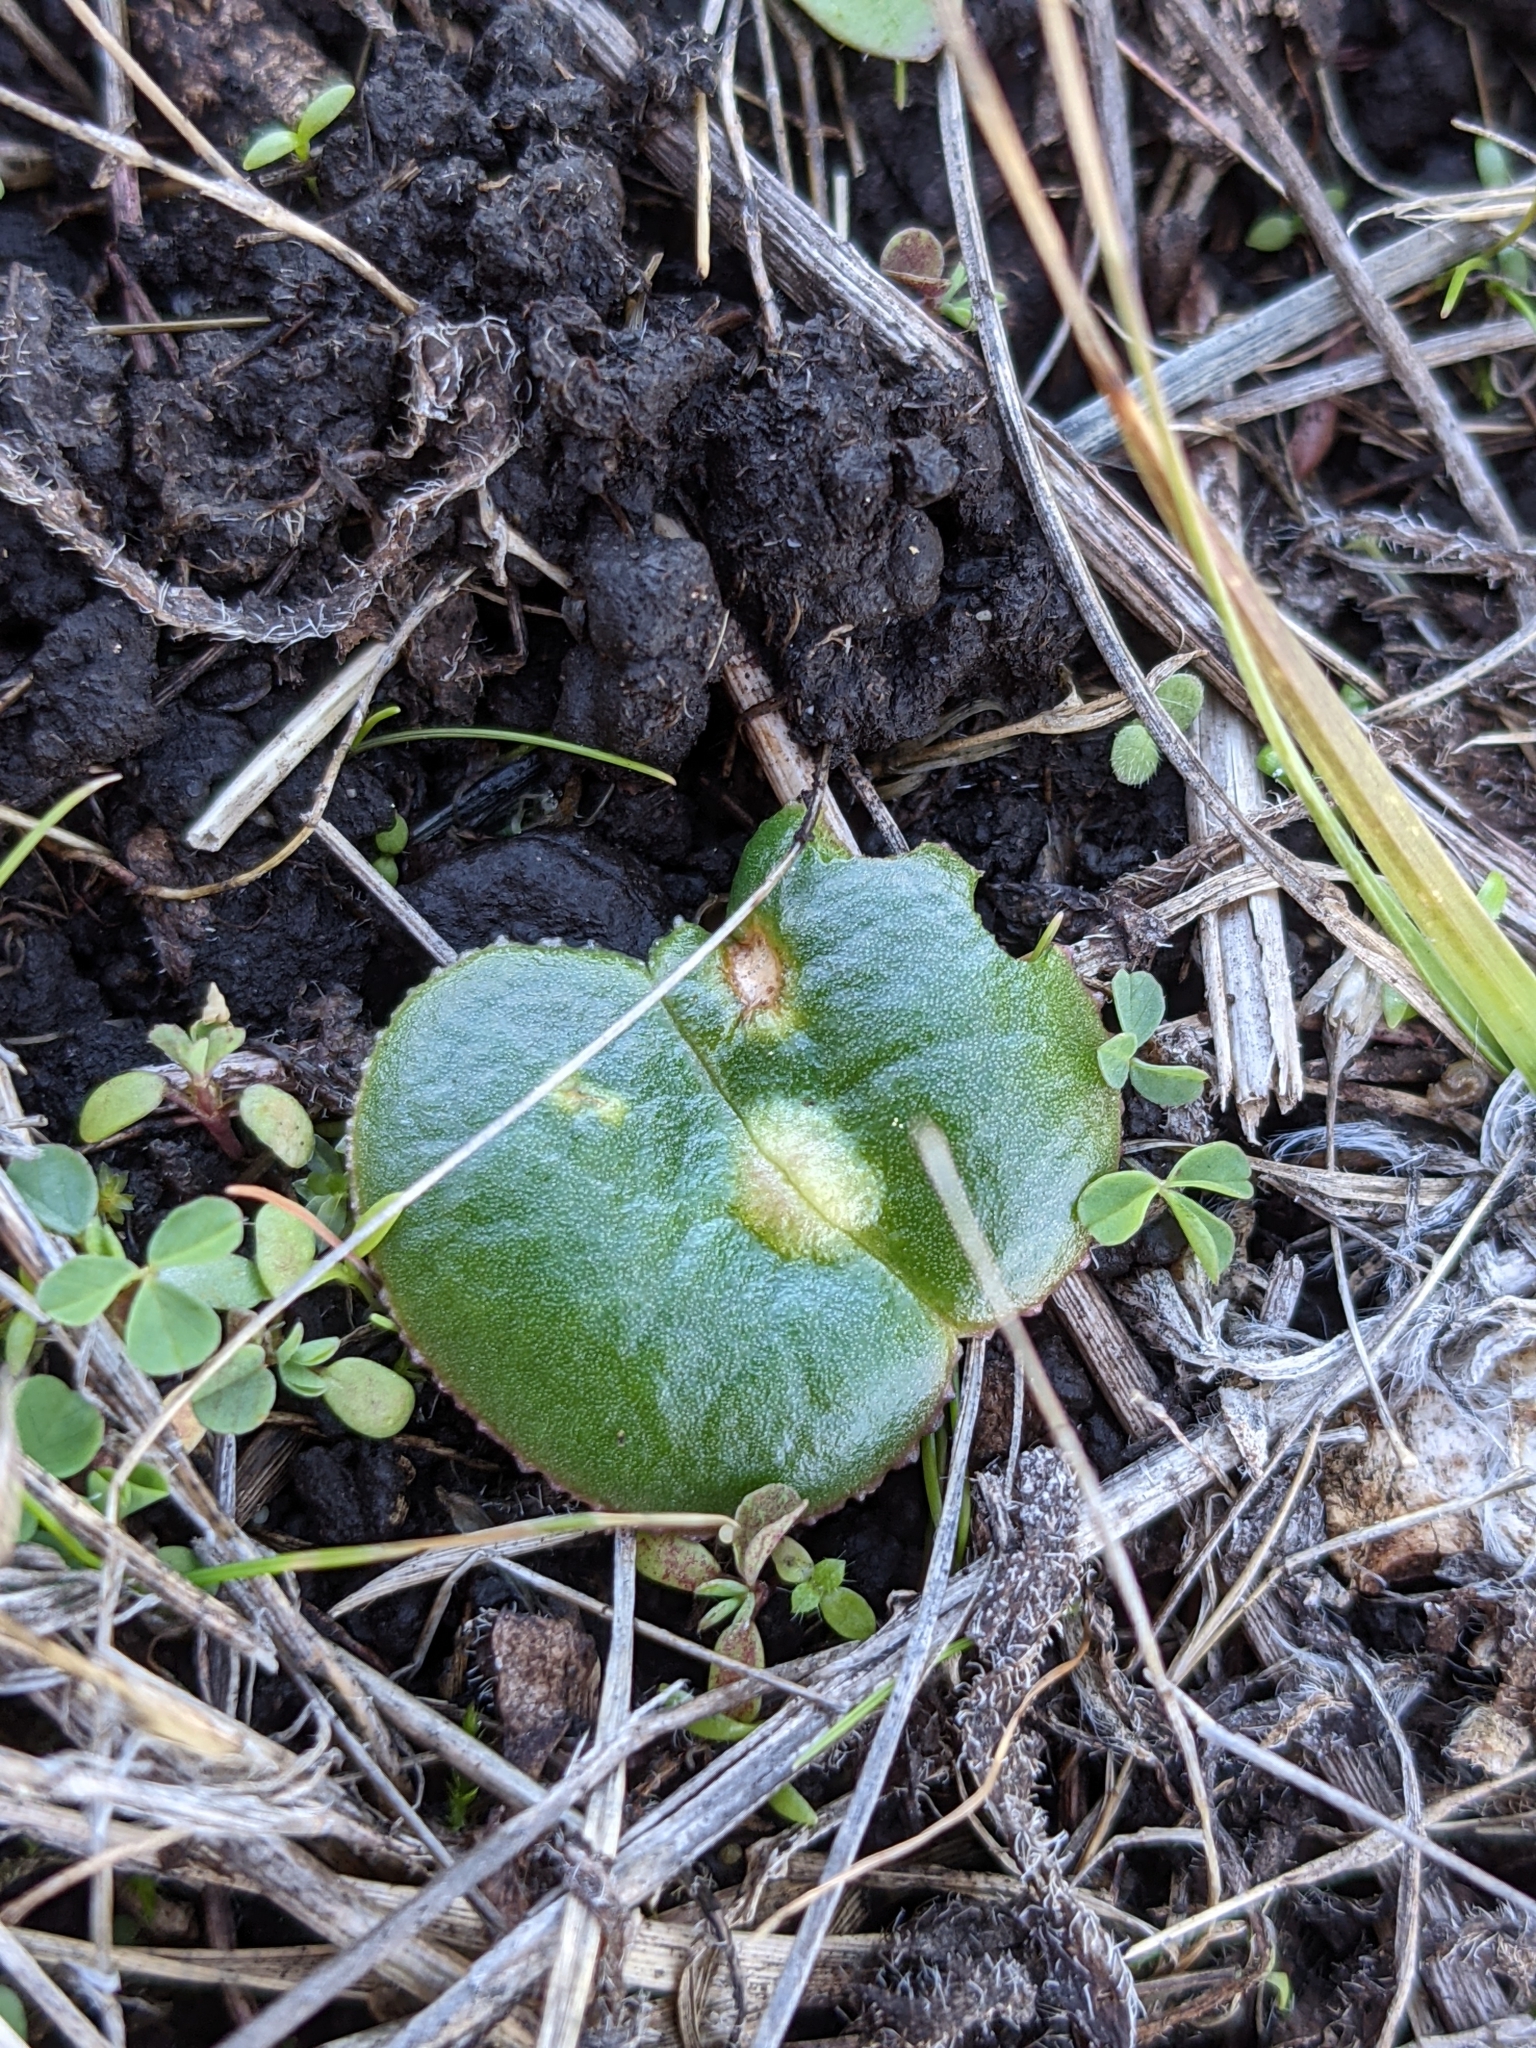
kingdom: Plantae
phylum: Tracheophyta
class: Magnoliopsida
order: Fabales
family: Fabaceae
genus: Lupinus
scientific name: Lupinus densiflorus
